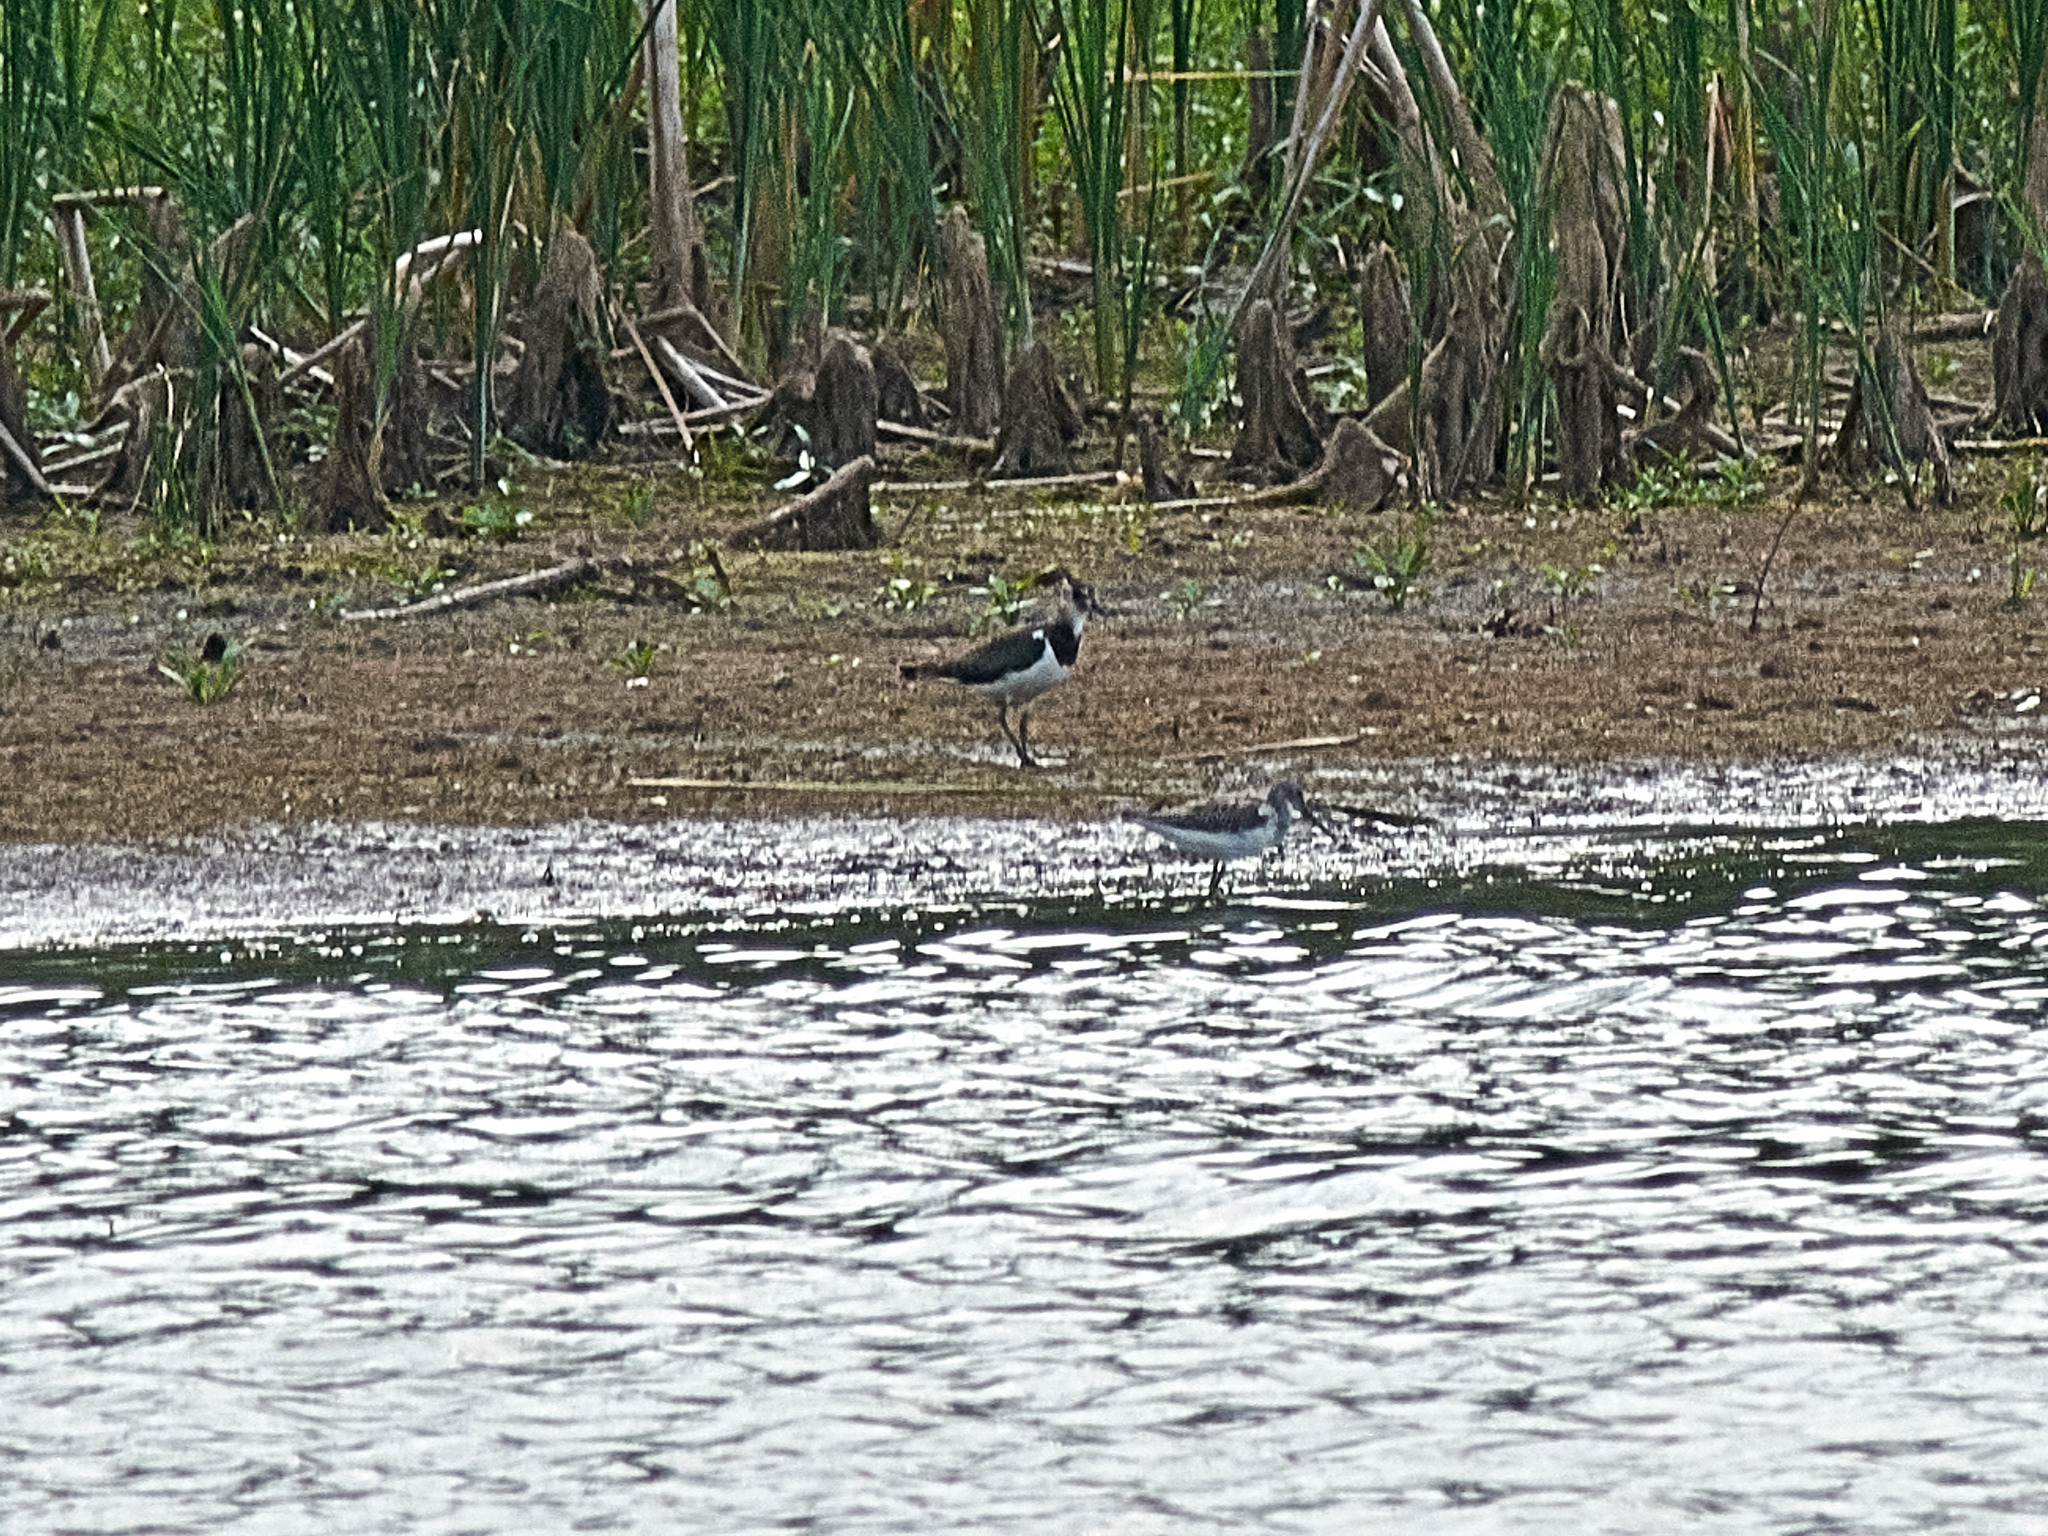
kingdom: Animalia
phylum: Chordata
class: Aves
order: Charadriiformes
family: Charadriidae
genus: Vanellus
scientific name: Vanellus vanellus
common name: Northern lapwing
